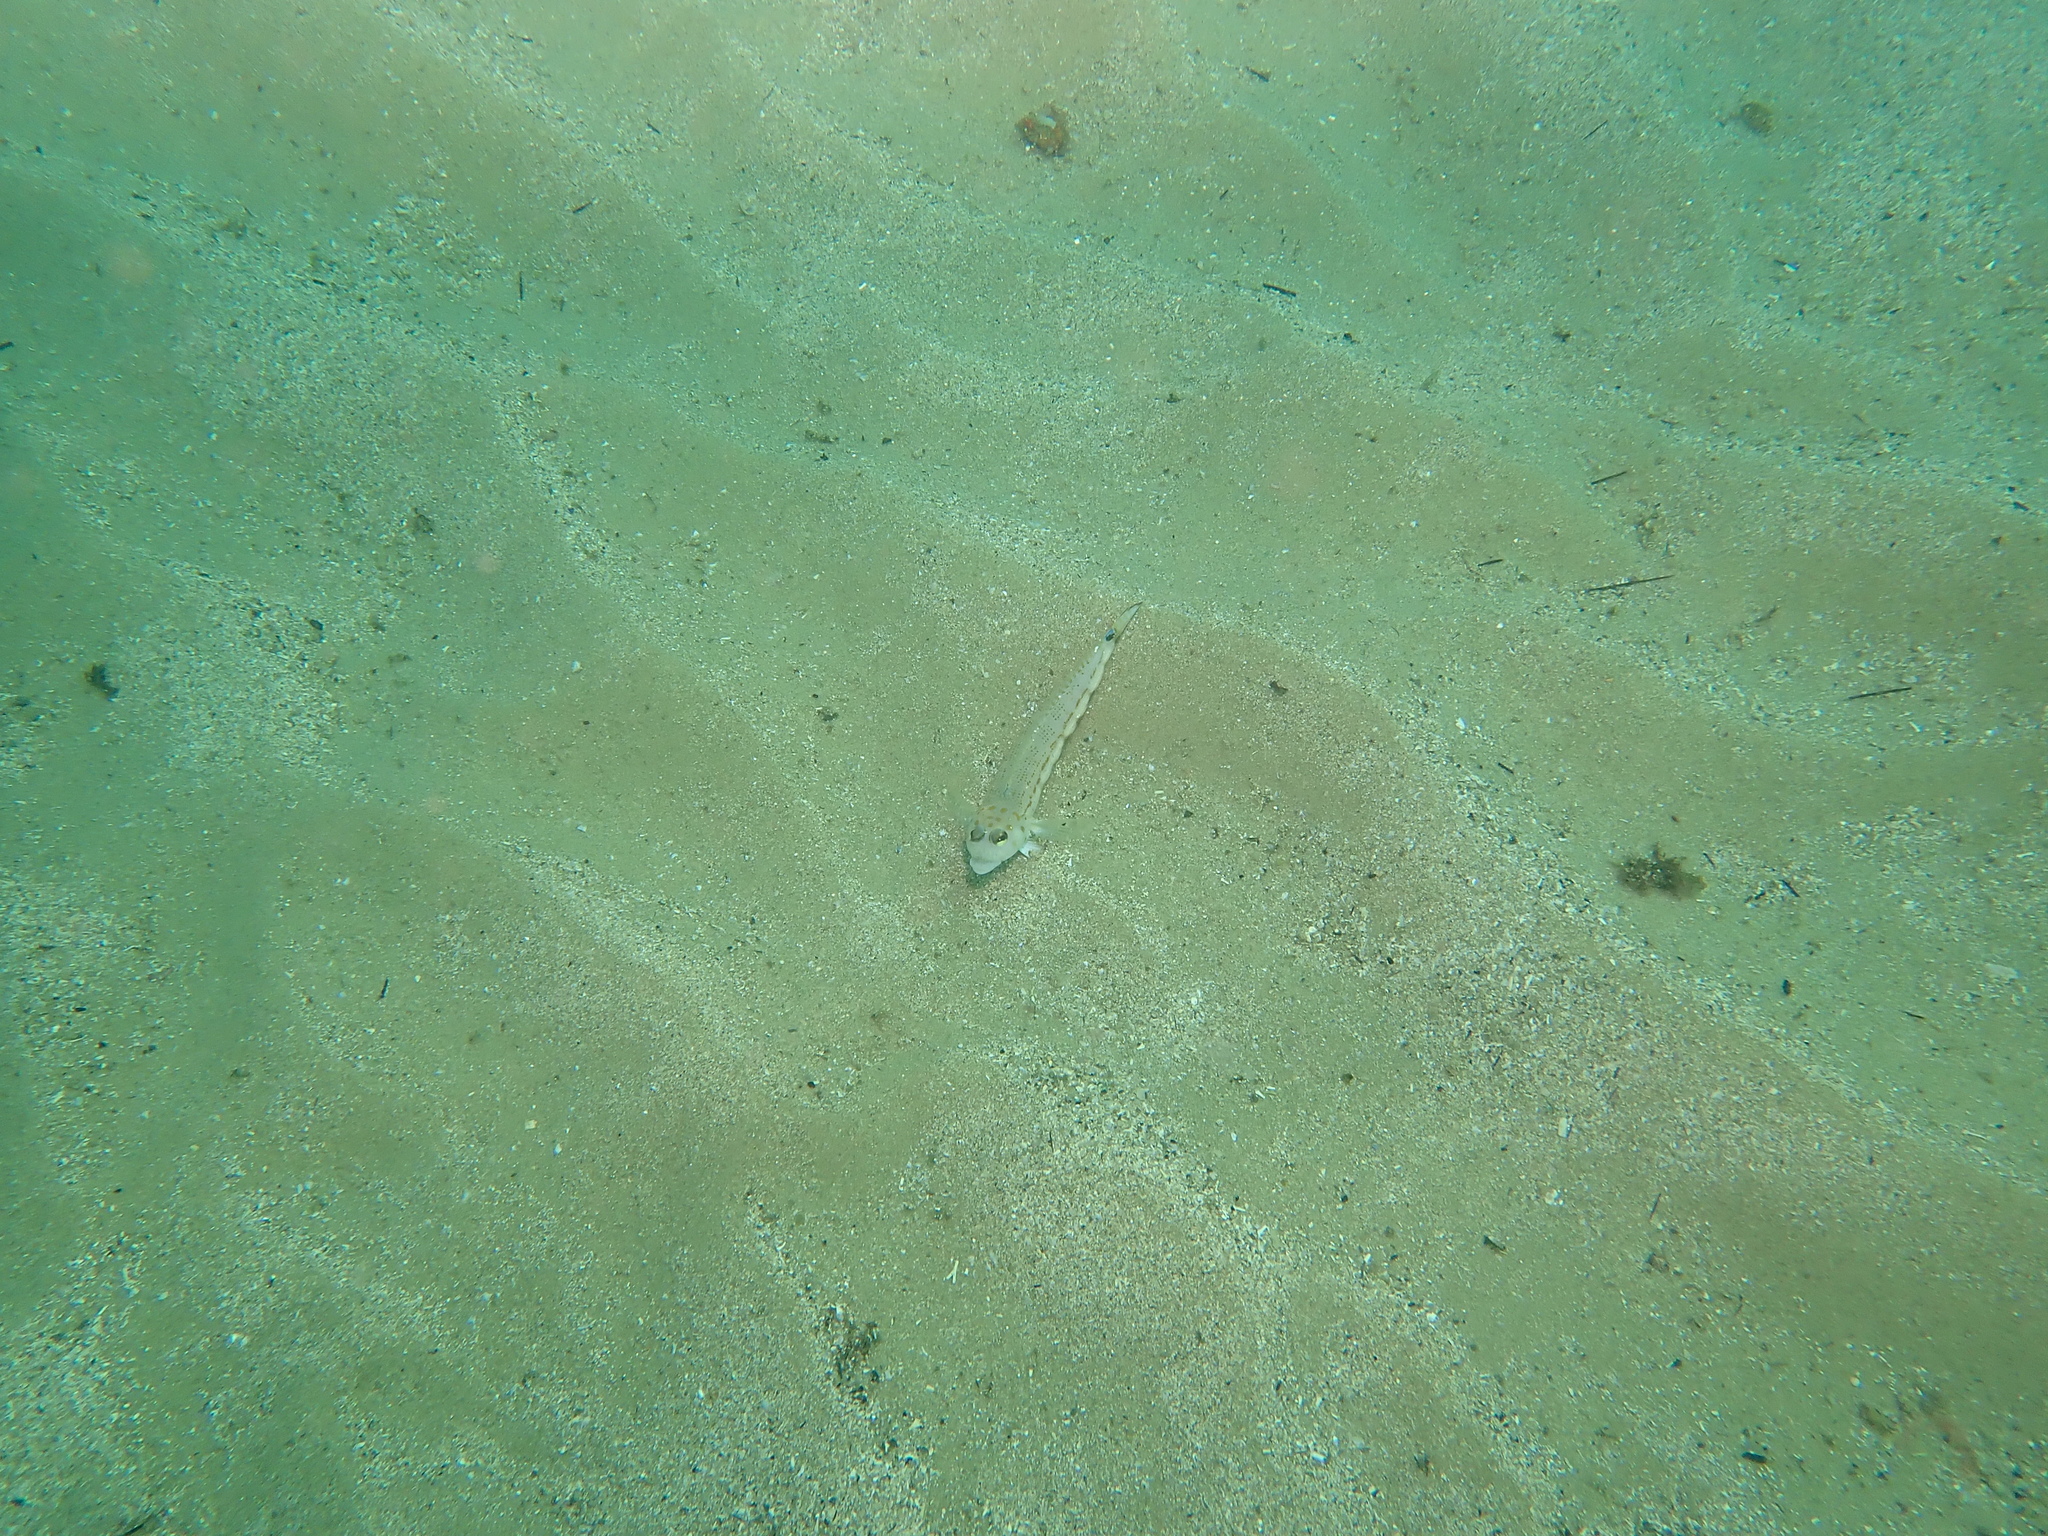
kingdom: Animalia
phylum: Chordata
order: Perciformes
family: Pinguipedidae
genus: Parapercis
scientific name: Parapercis ramsayi
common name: Ramsay's grubfish
